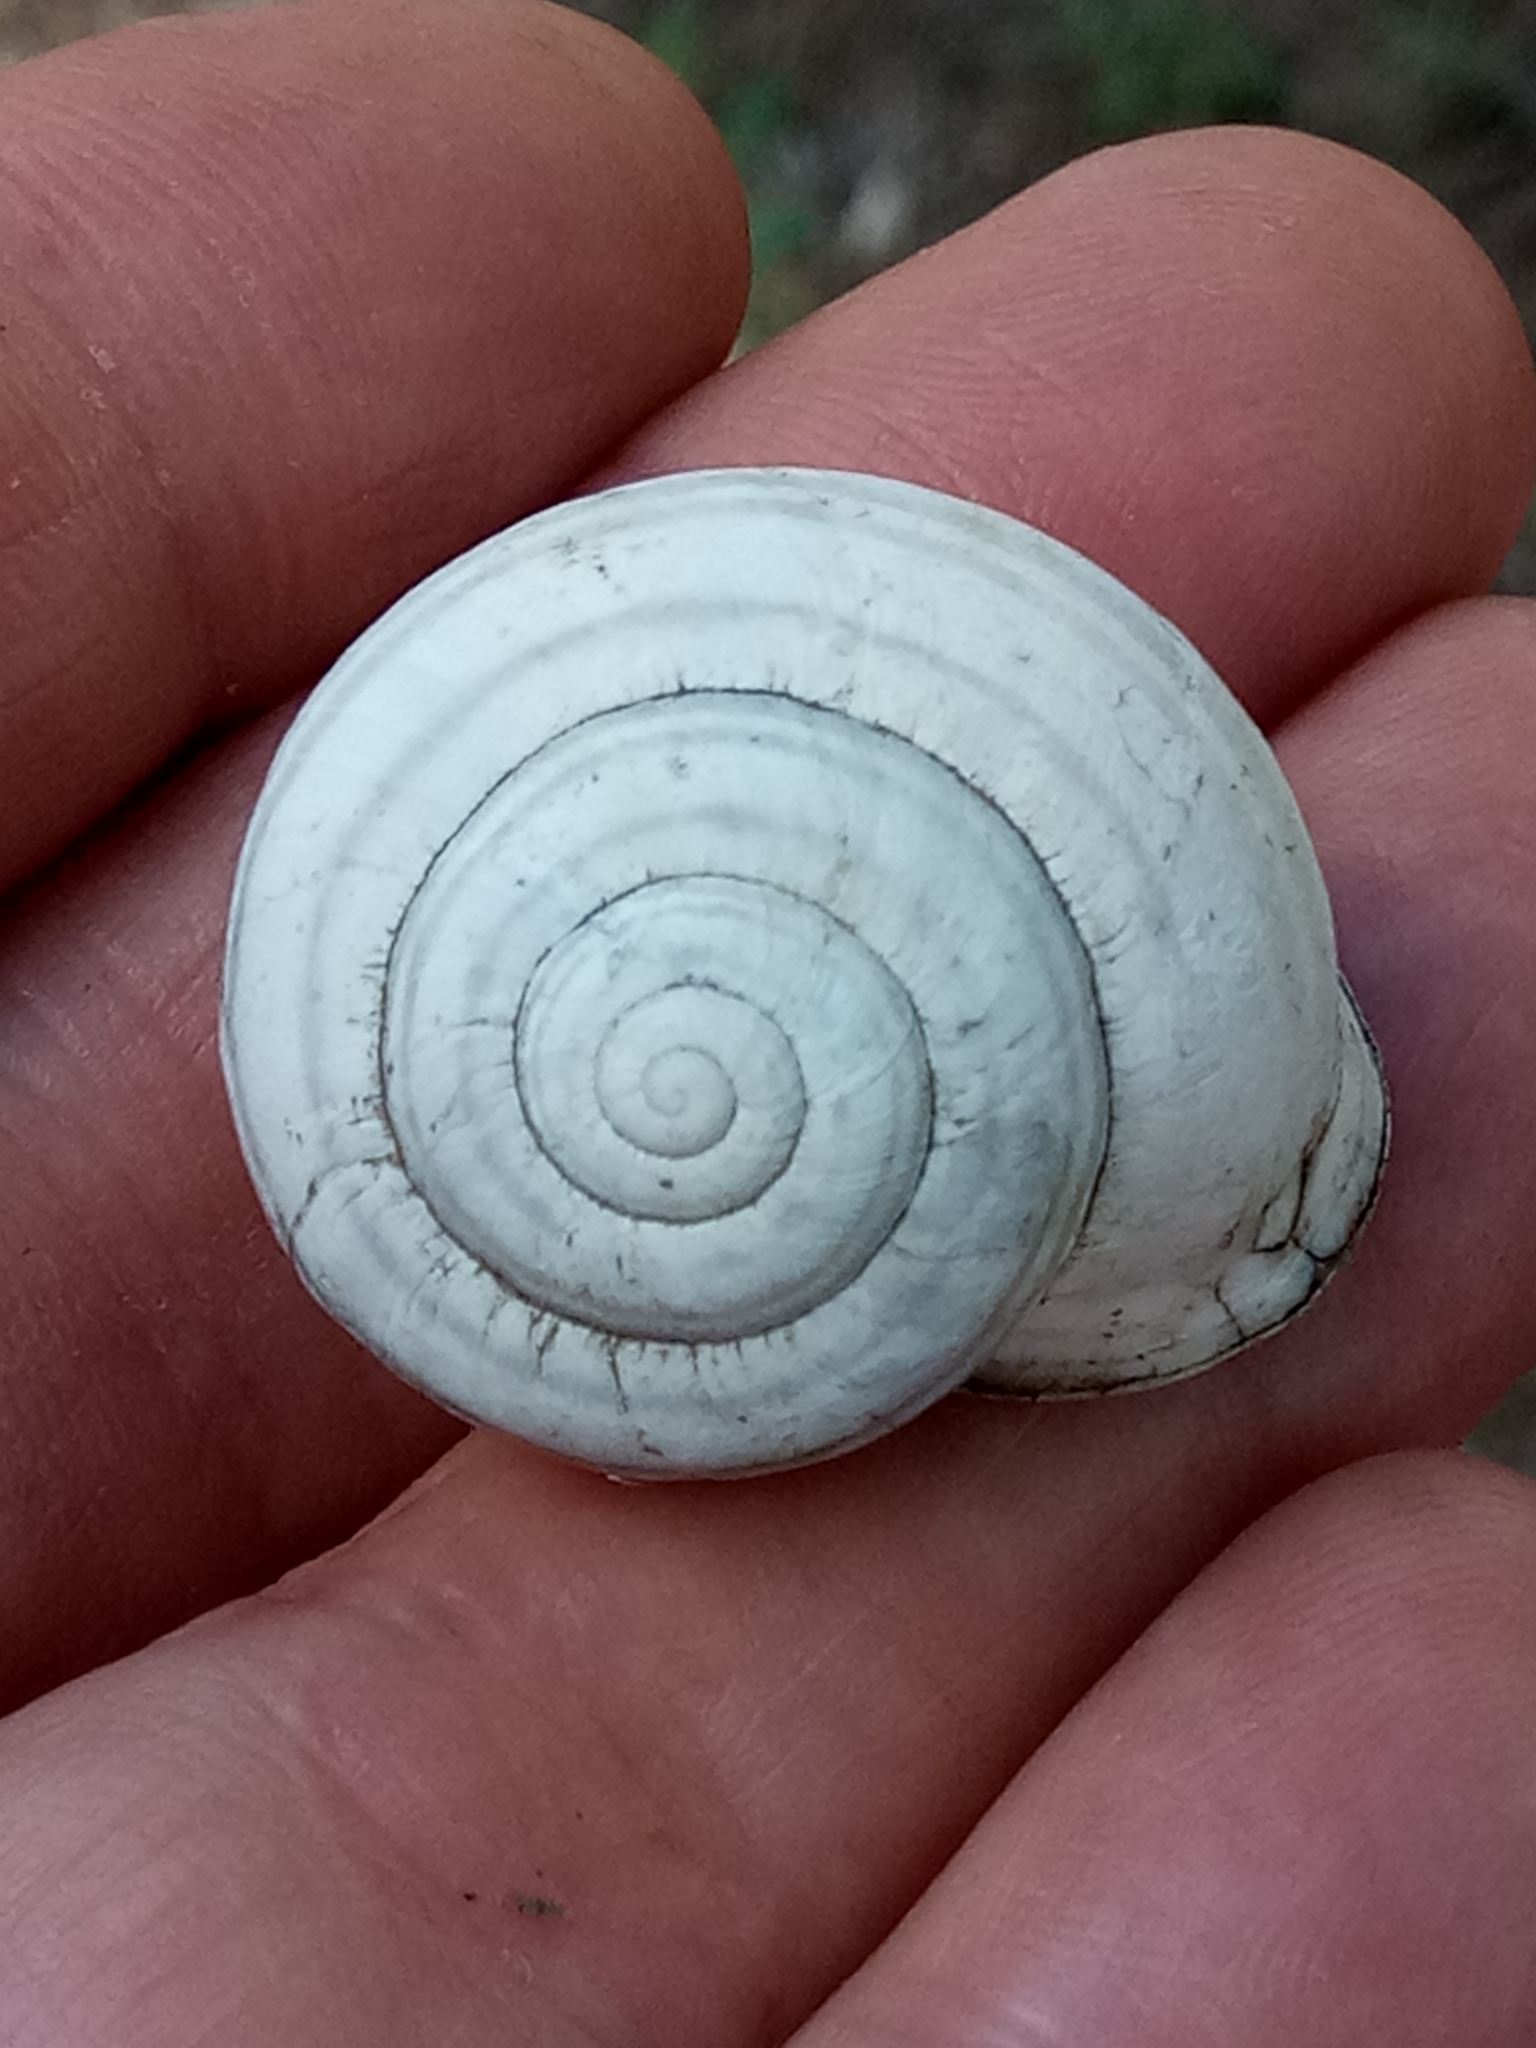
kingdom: Animalia
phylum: Mollusca
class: Gastropoda
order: Stylommatophora
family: Helicidae
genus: Eobania
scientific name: Eobania constantina
